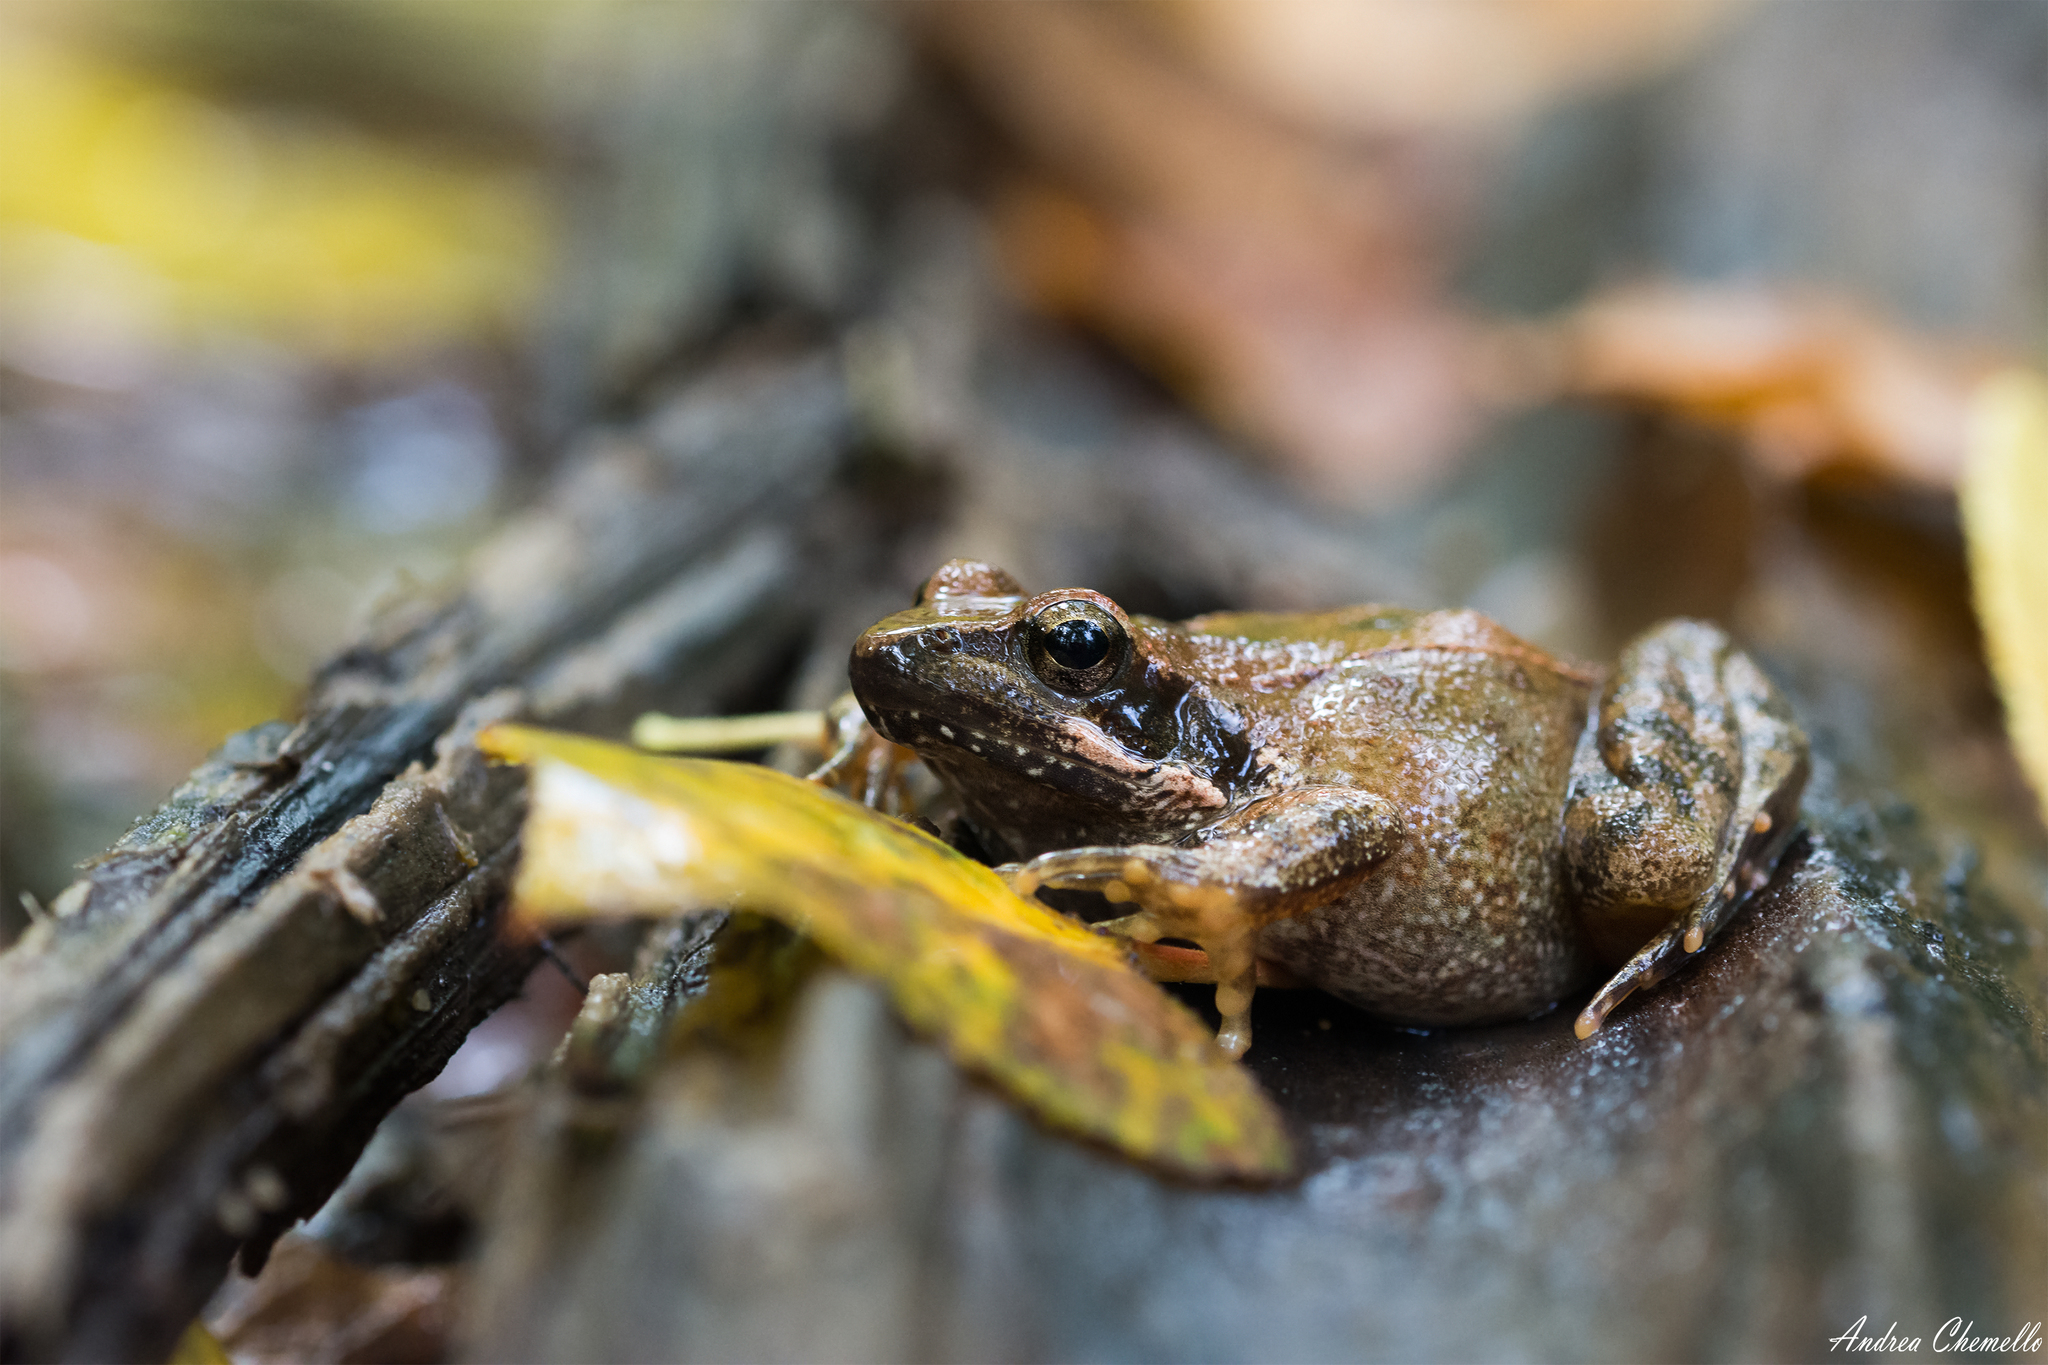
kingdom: Animalia
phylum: Chordata
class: Amphibia
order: Anura
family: Ranidae
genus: Rana
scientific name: Rana italica
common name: Italian stream frog
